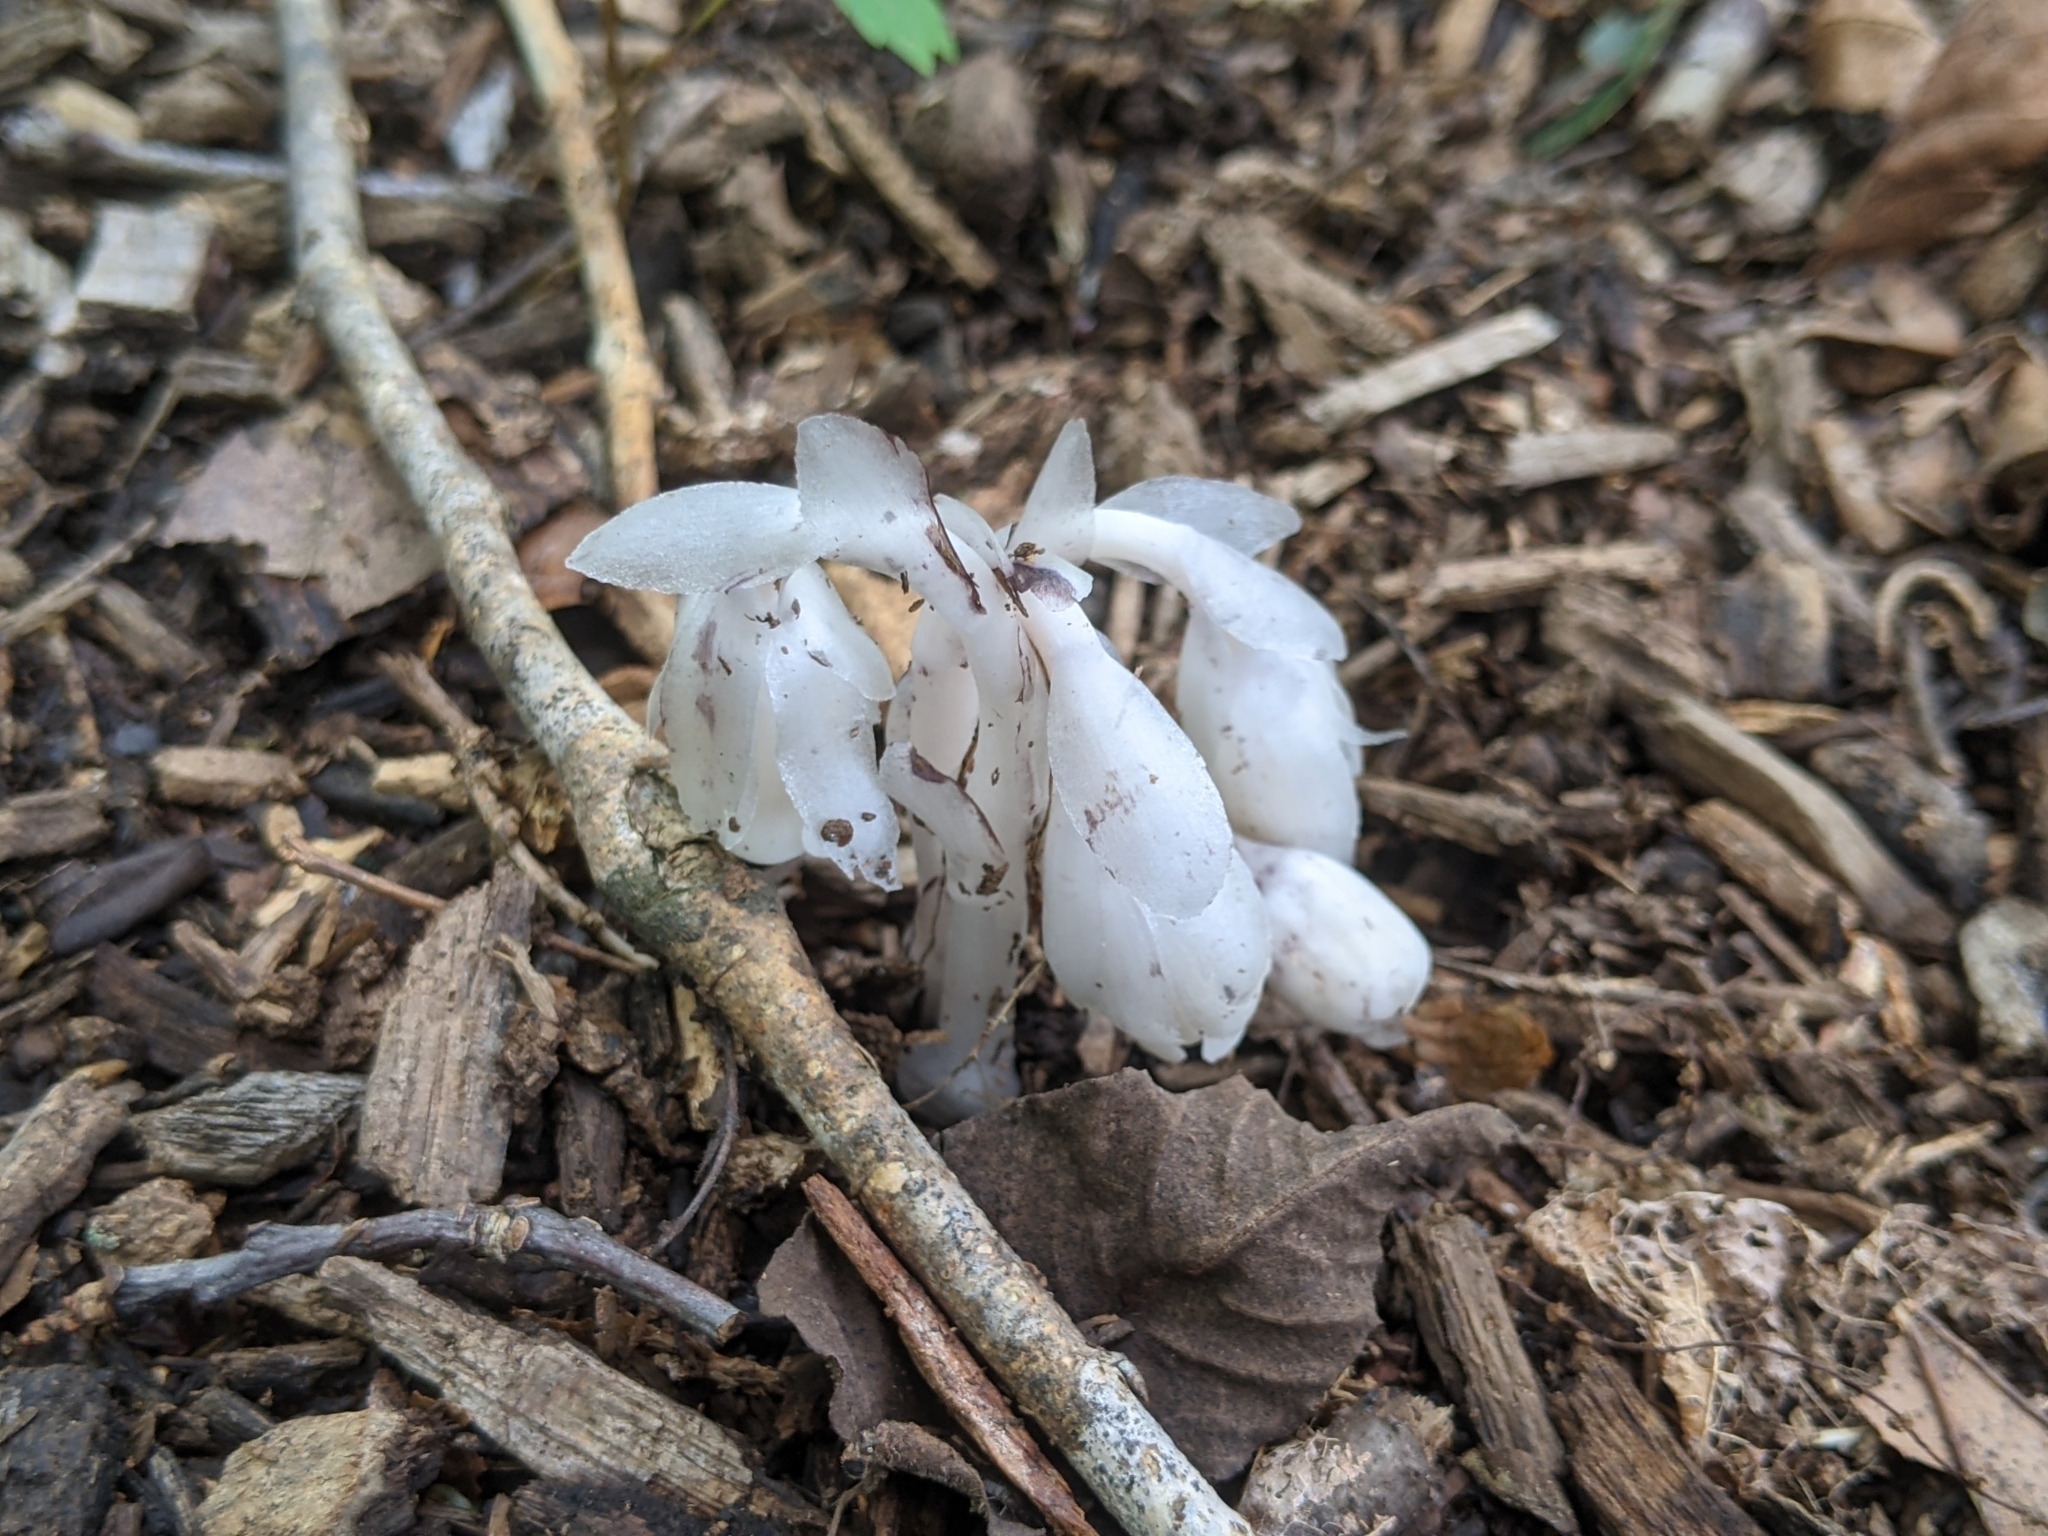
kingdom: Plantae
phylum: Tracheophyta
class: Magnoliopsida
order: Ericales
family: Ericaceae
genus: Monotropa
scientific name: Monotropa uniflora
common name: Convulsion root
